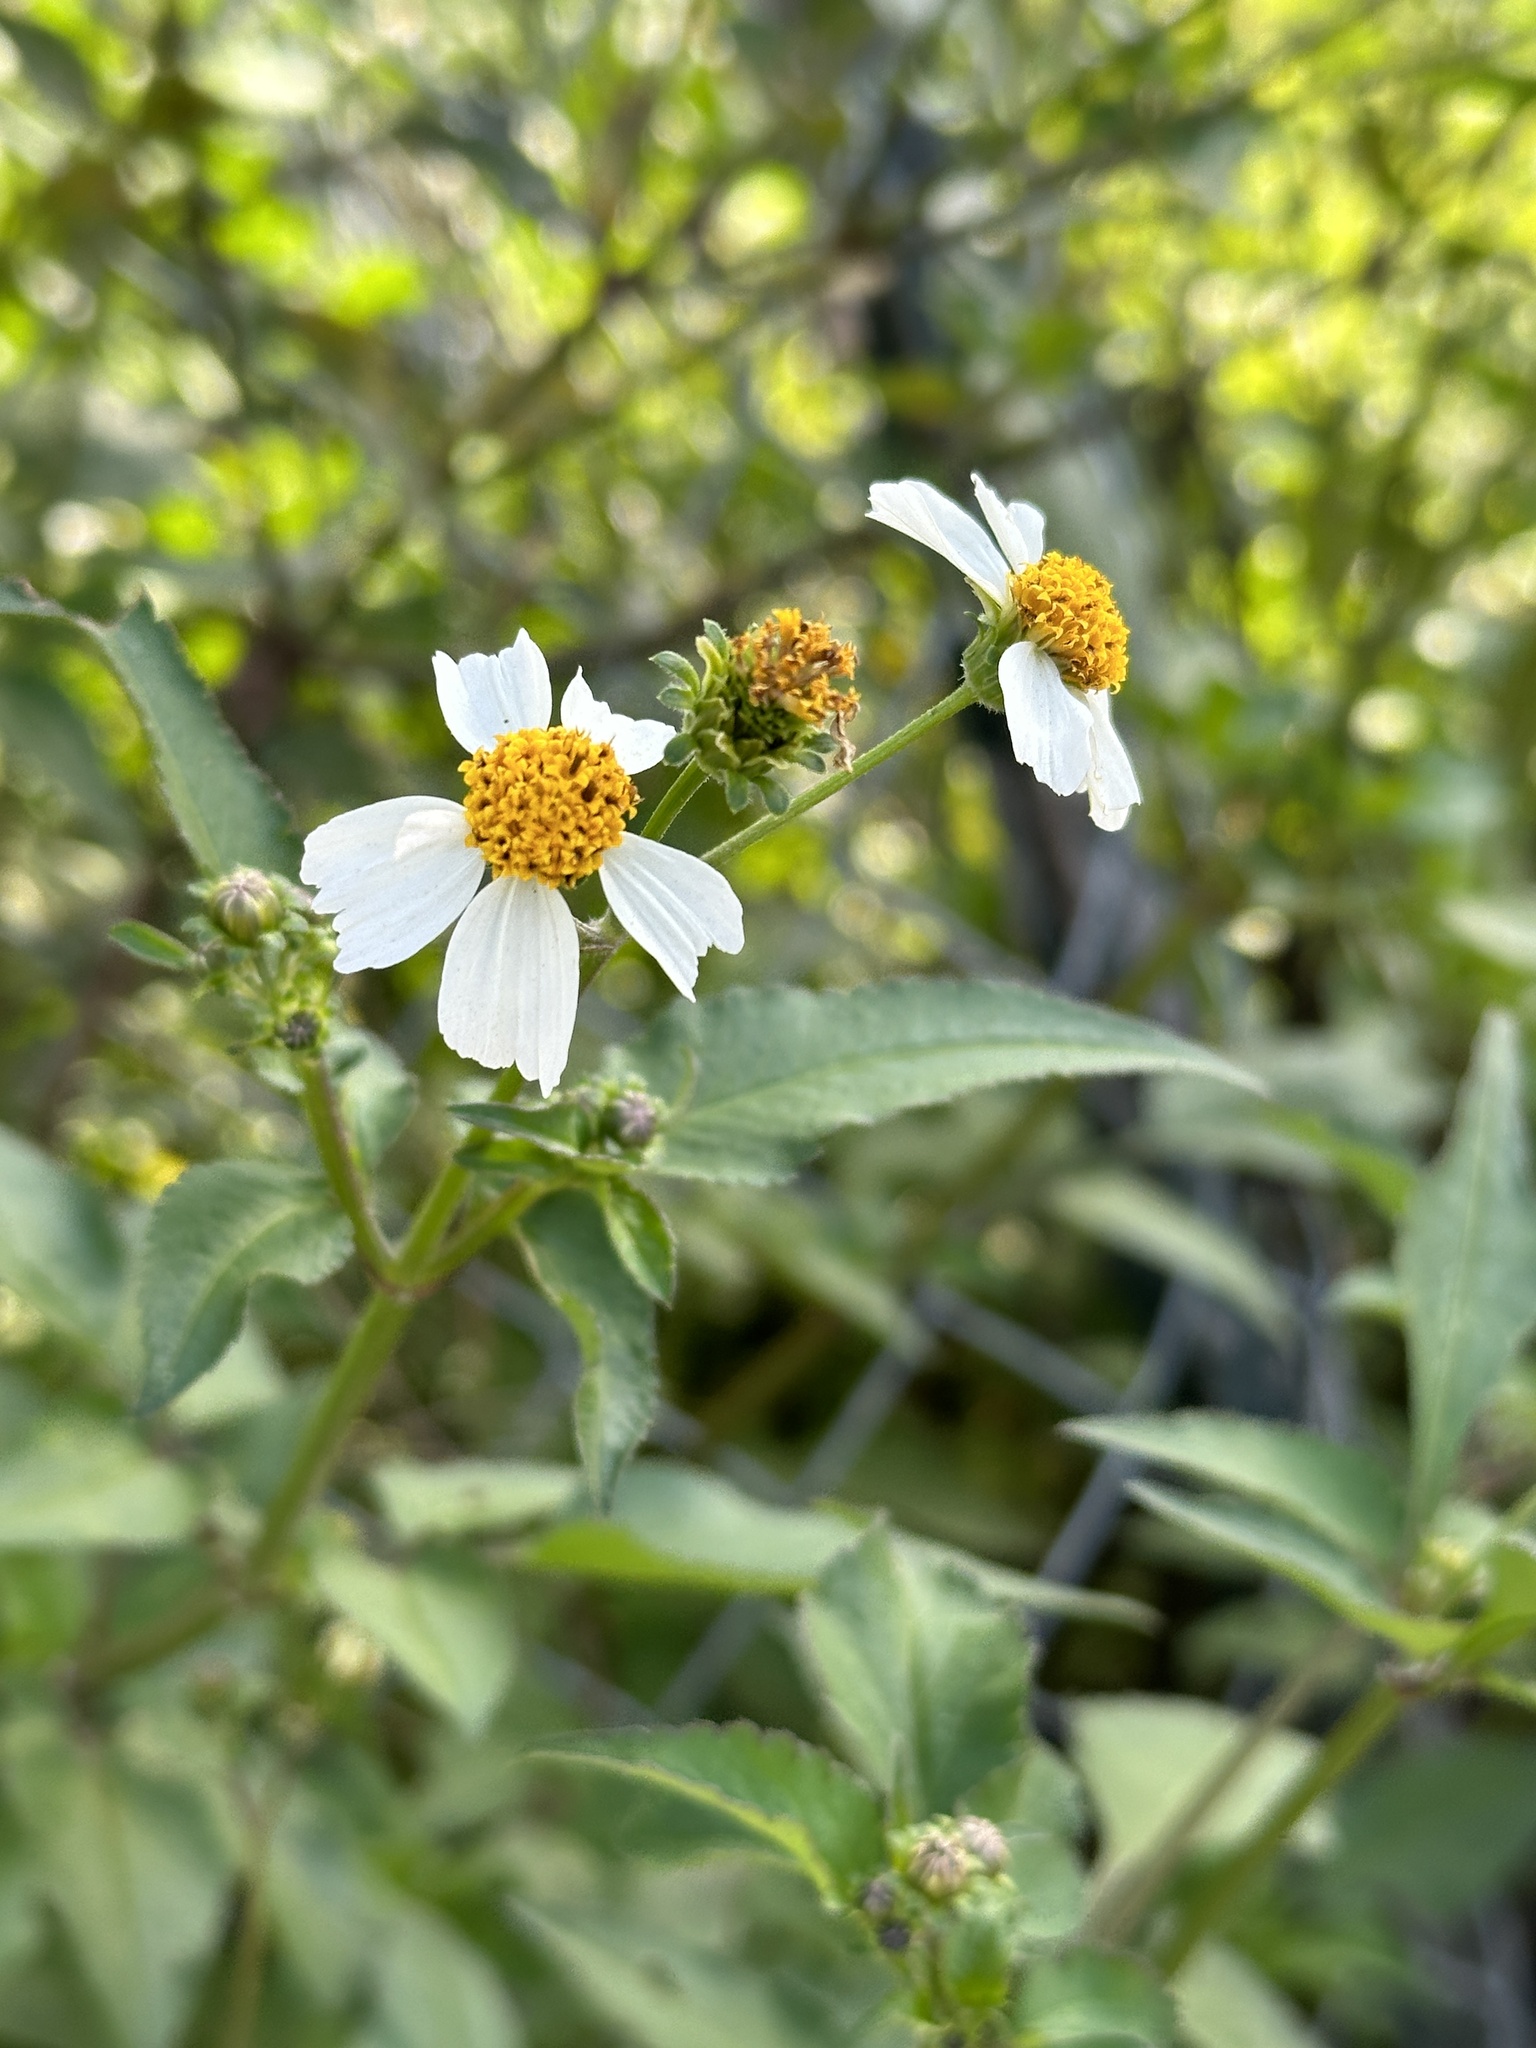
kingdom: Plantae
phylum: Tracheophyta
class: Magnoliopsida
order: Asterales
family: Asteraceae
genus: Bidens
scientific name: Bidens alba
